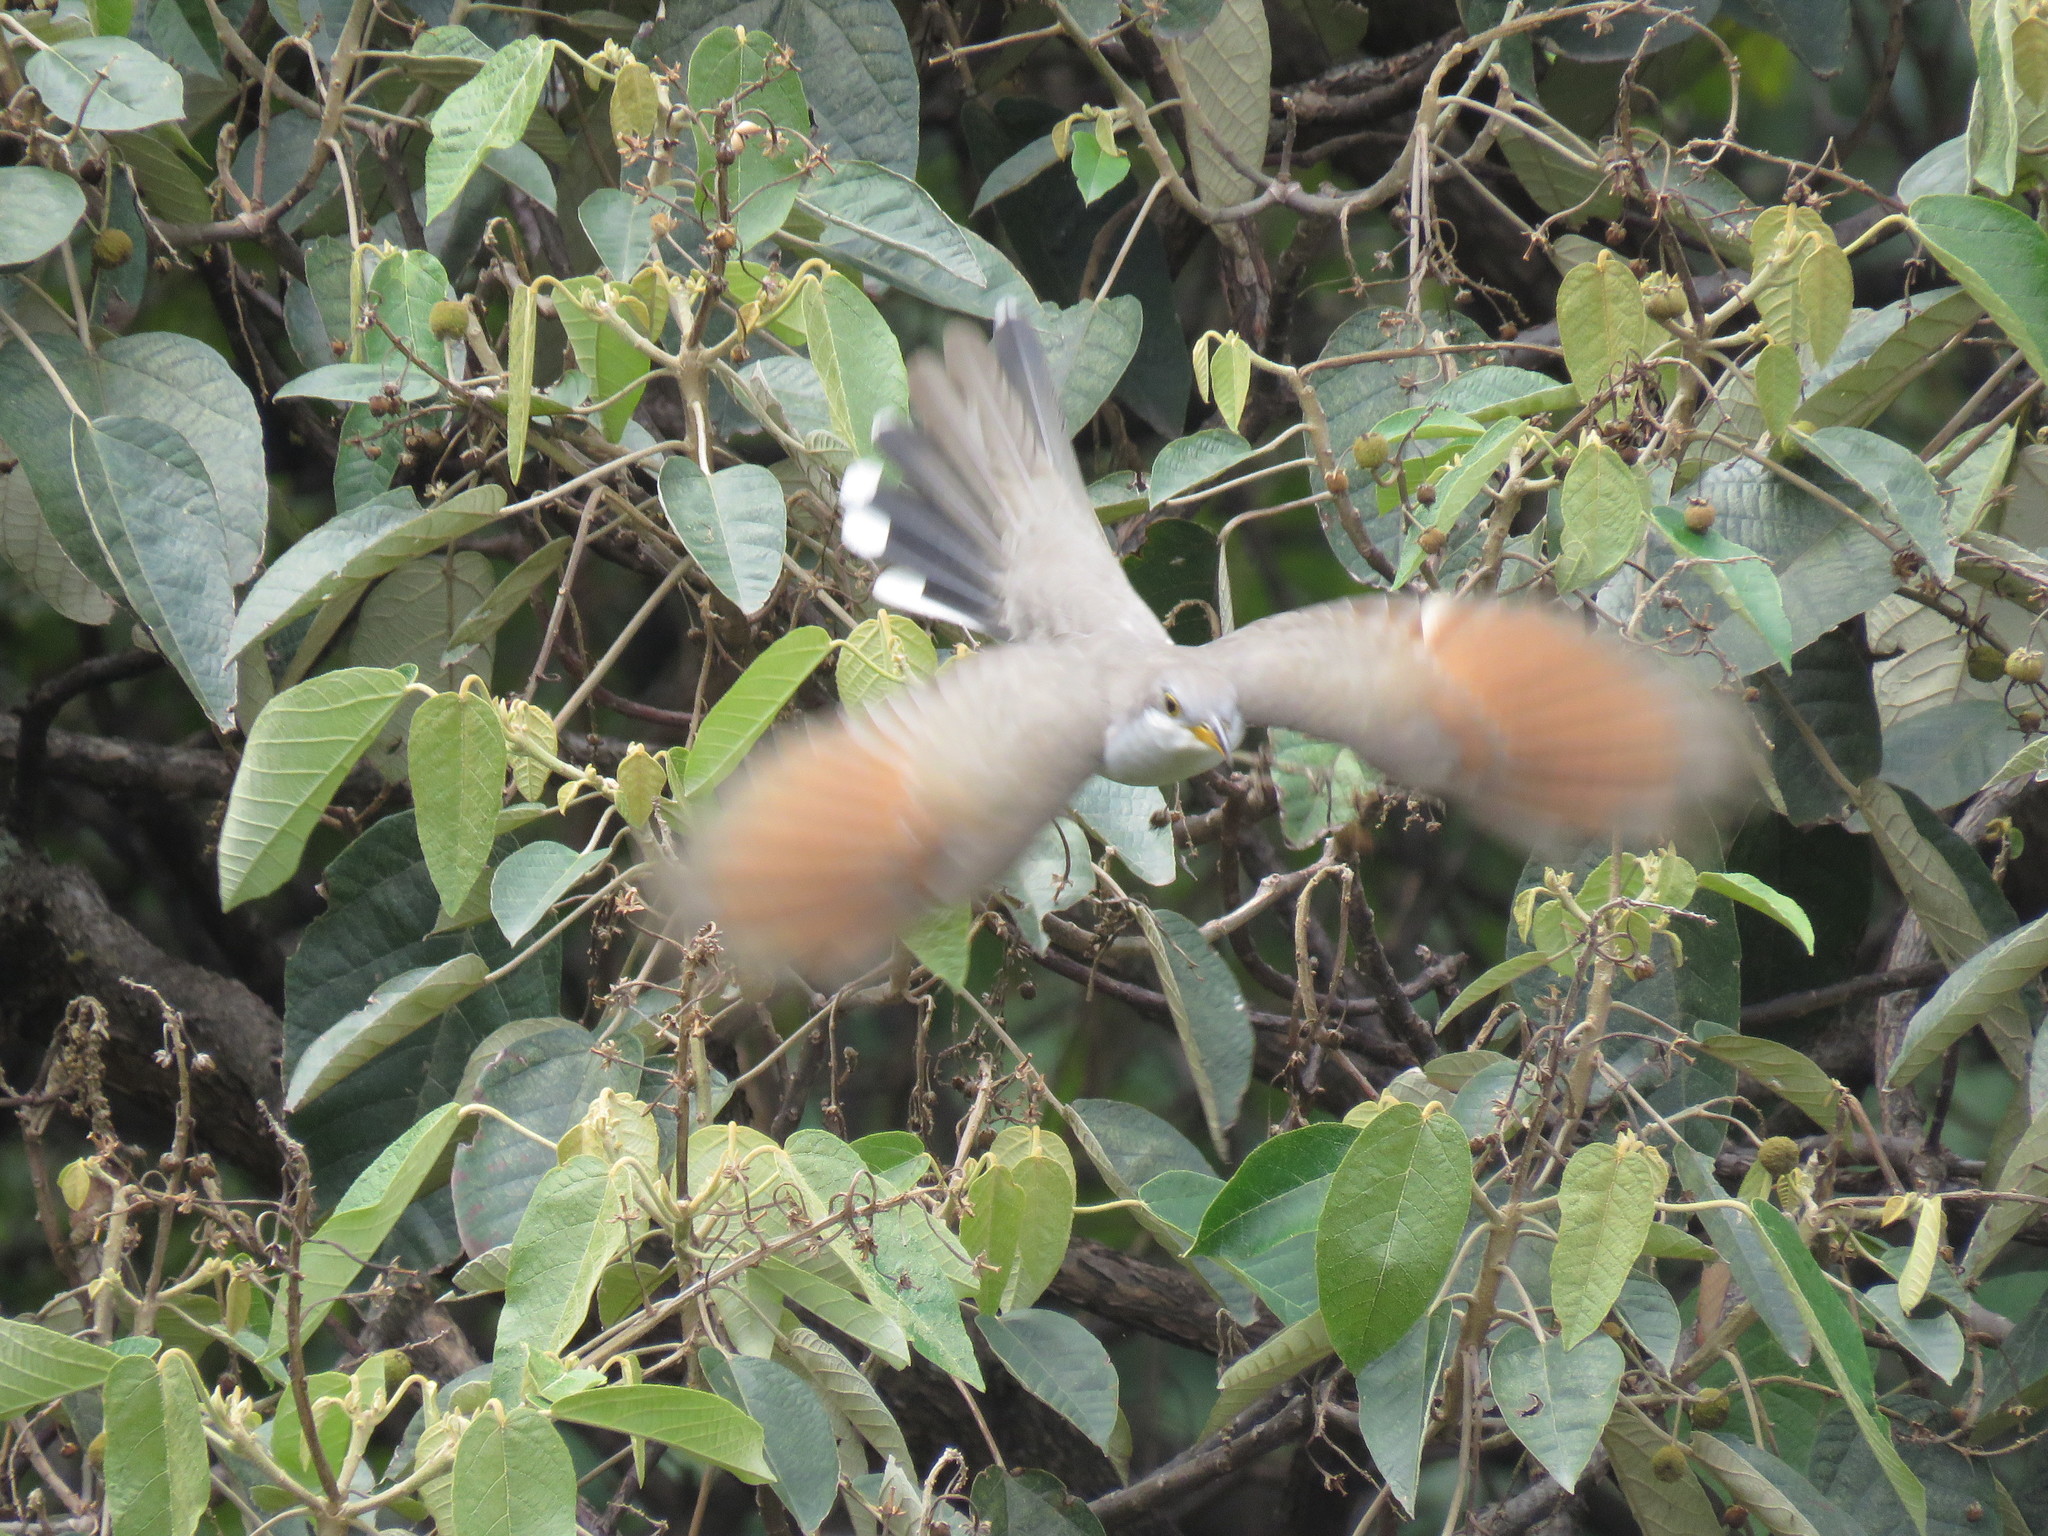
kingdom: Animalia
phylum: Chordata
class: Aves
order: Cuculiformes
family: Cuculidae
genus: Coccyzus
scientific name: Coccyzus americanus
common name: Yellow-billed cuckoo
